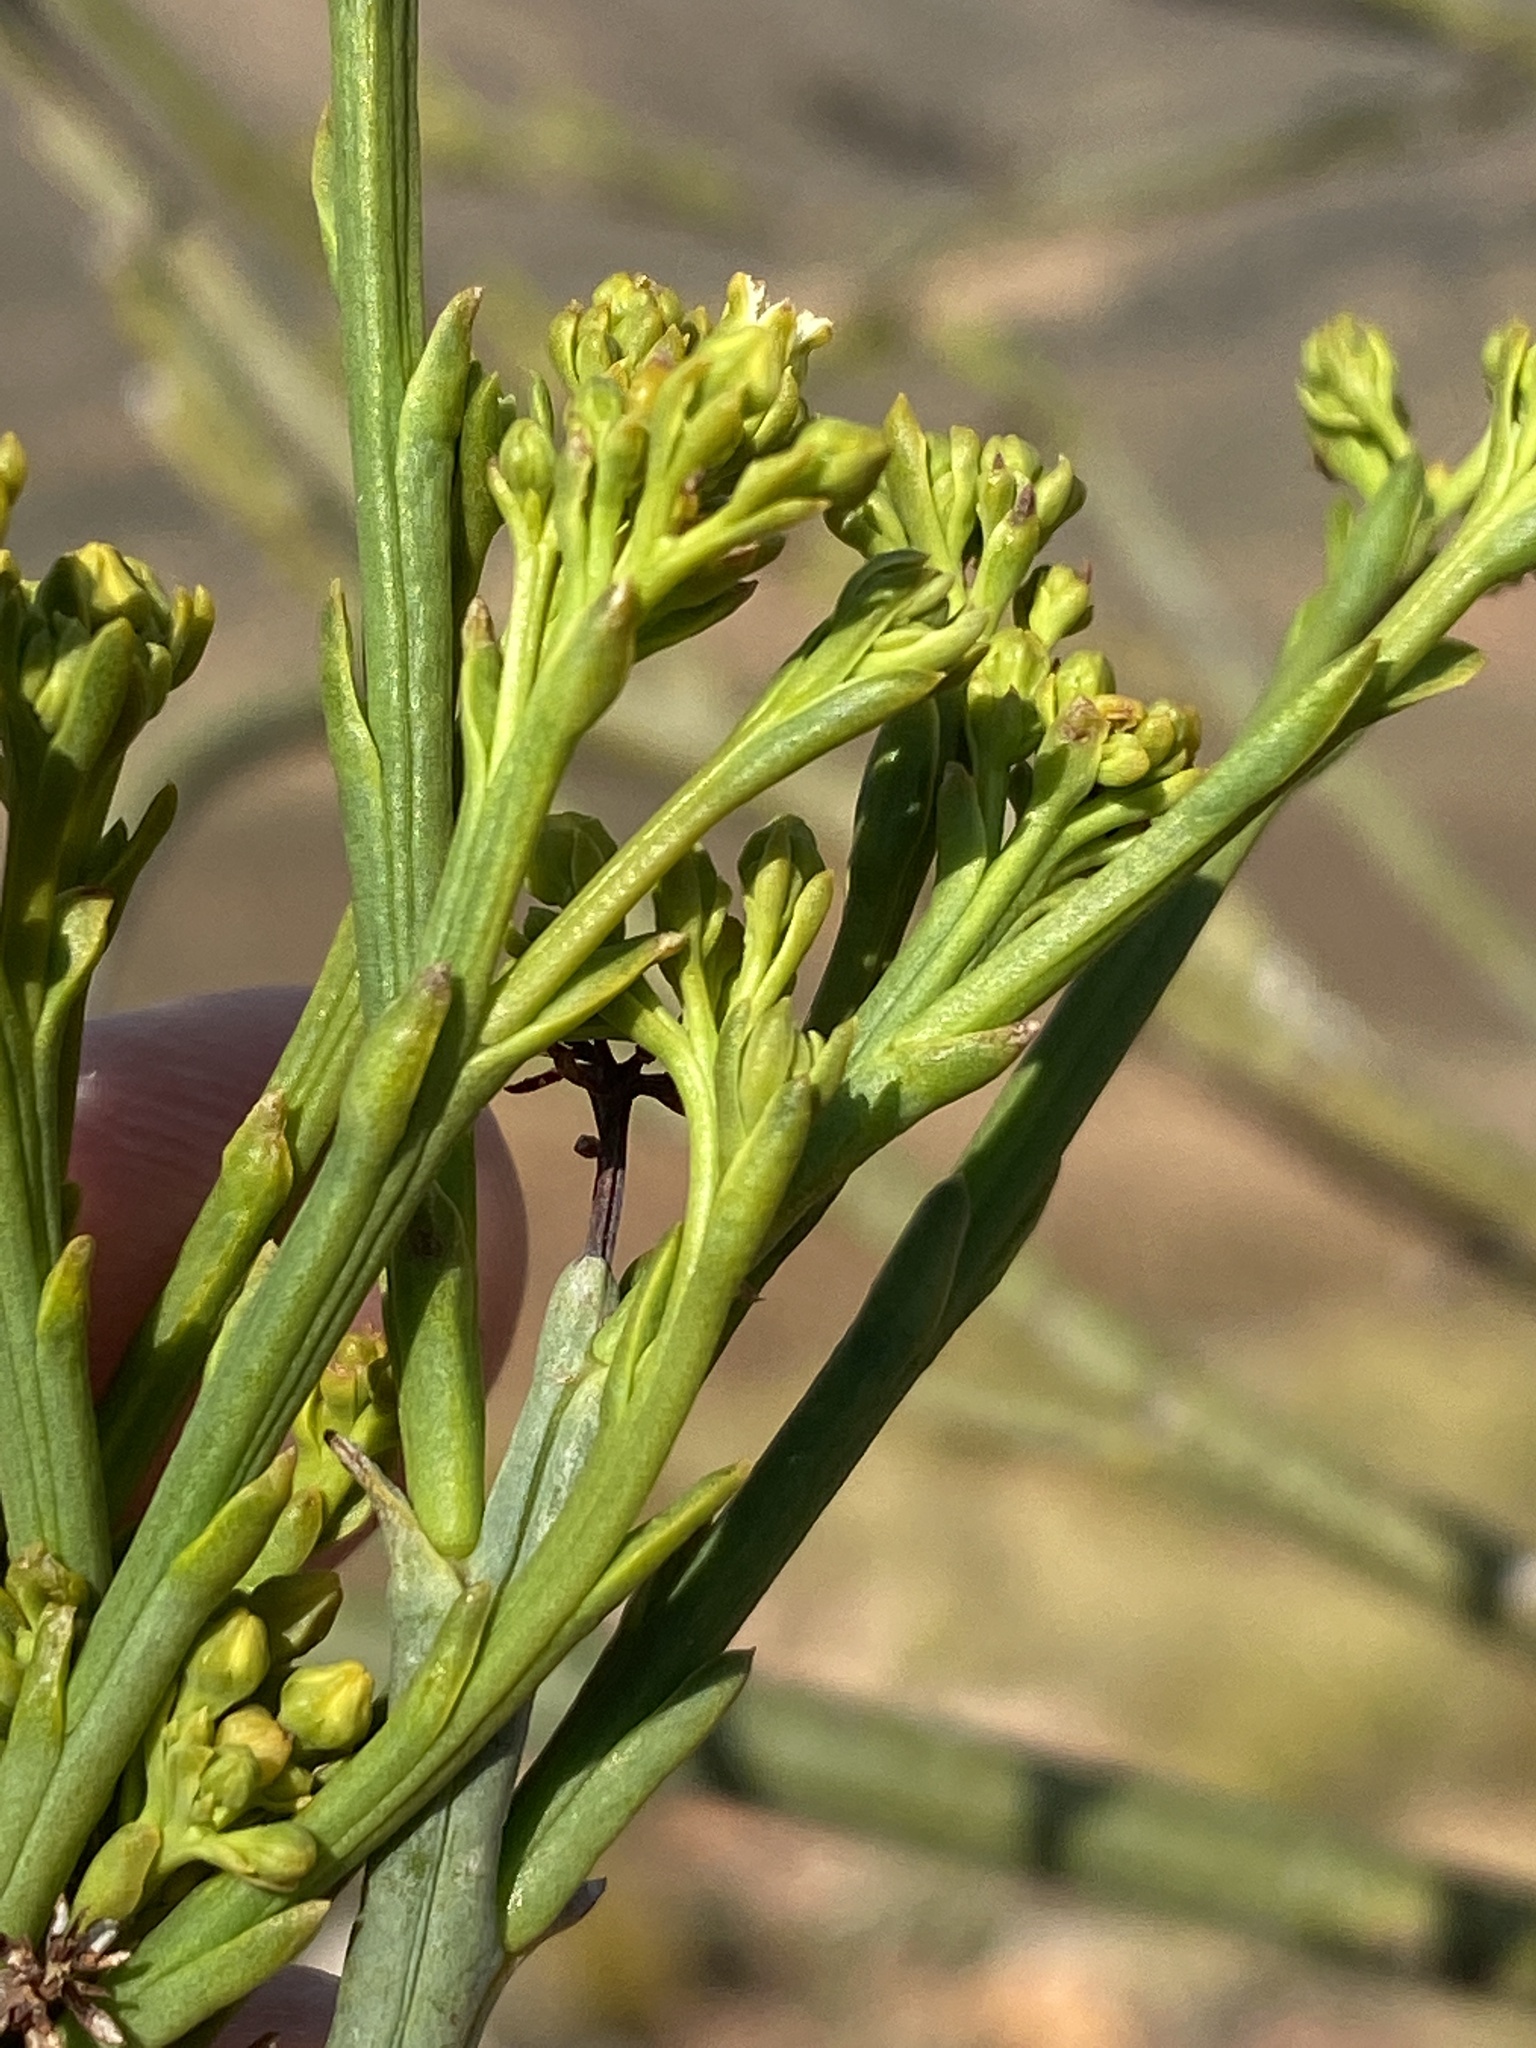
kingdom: Plantae
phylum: Tracheophyta
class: Magnoliopsida
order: Santalales
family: Thesiaceae
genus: Thesium
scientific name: Thesium strictum
